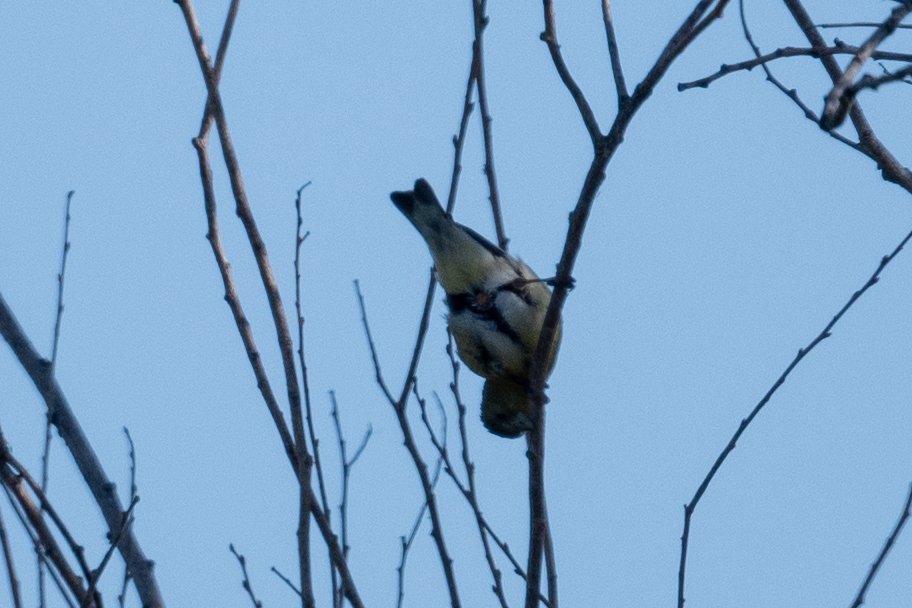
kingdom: Animalia
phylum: Chordata
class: Aves
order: Passeriformes
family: Fringillidae
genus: Spinus
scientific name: Spinus psaltria
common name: Lesser goldfinch
